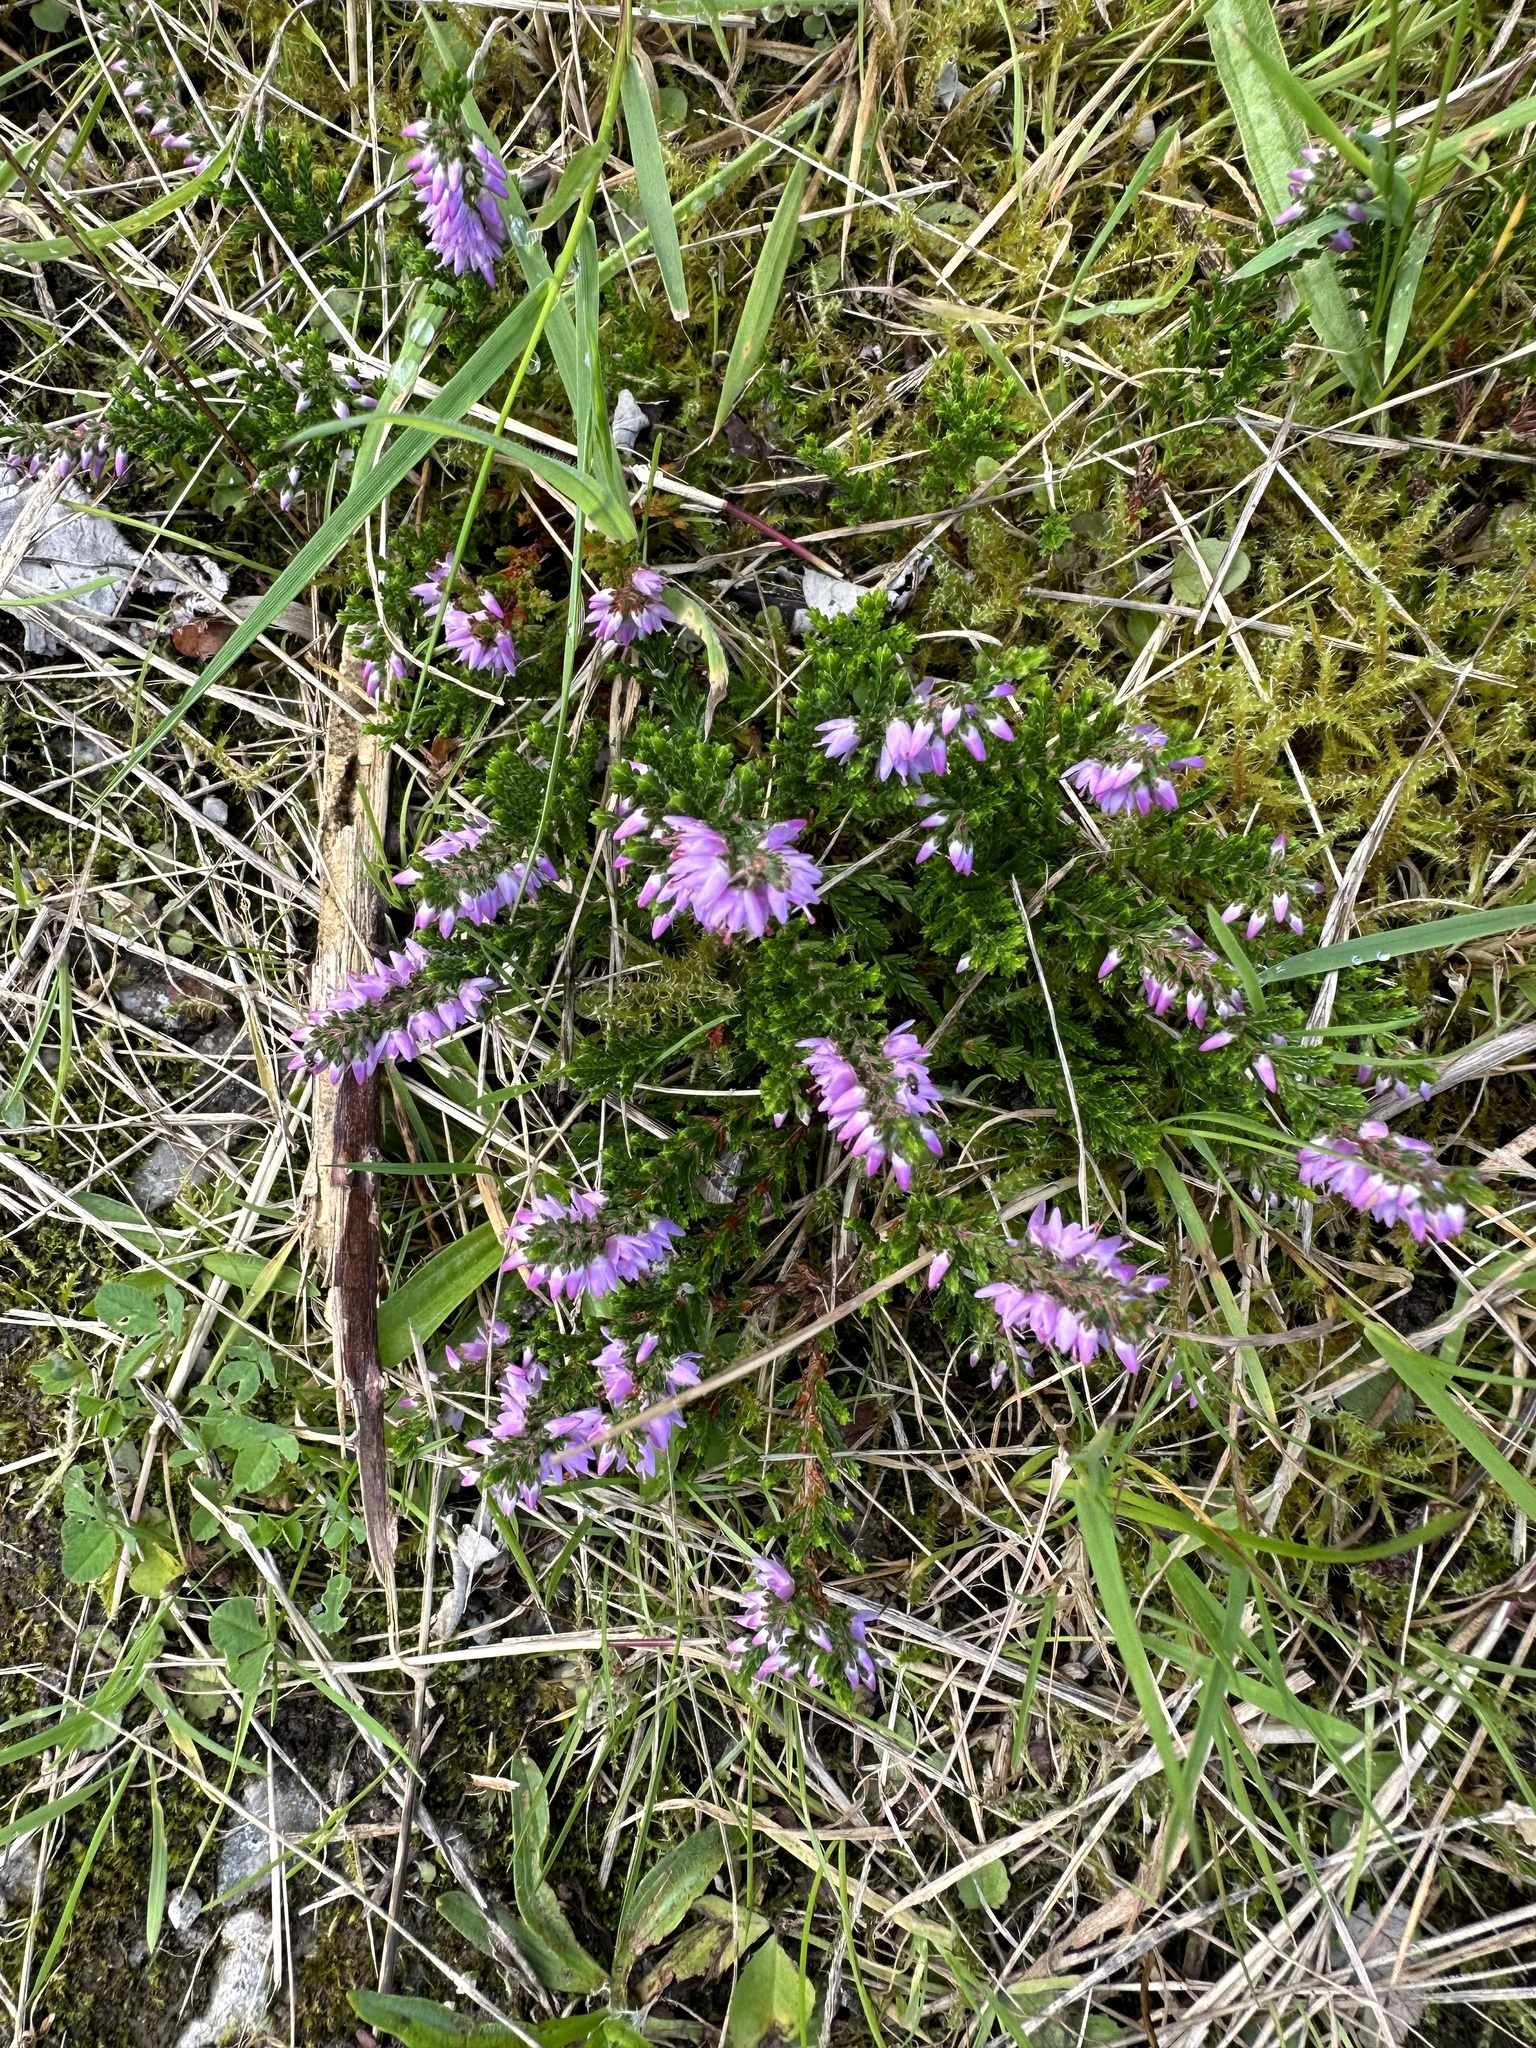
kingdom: Plantae
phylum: Tracheophyta
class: Magnoliopsida
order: Ericales
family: Ericaceae
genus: Calluna
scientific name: Calluna vulgaris
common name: Heather
